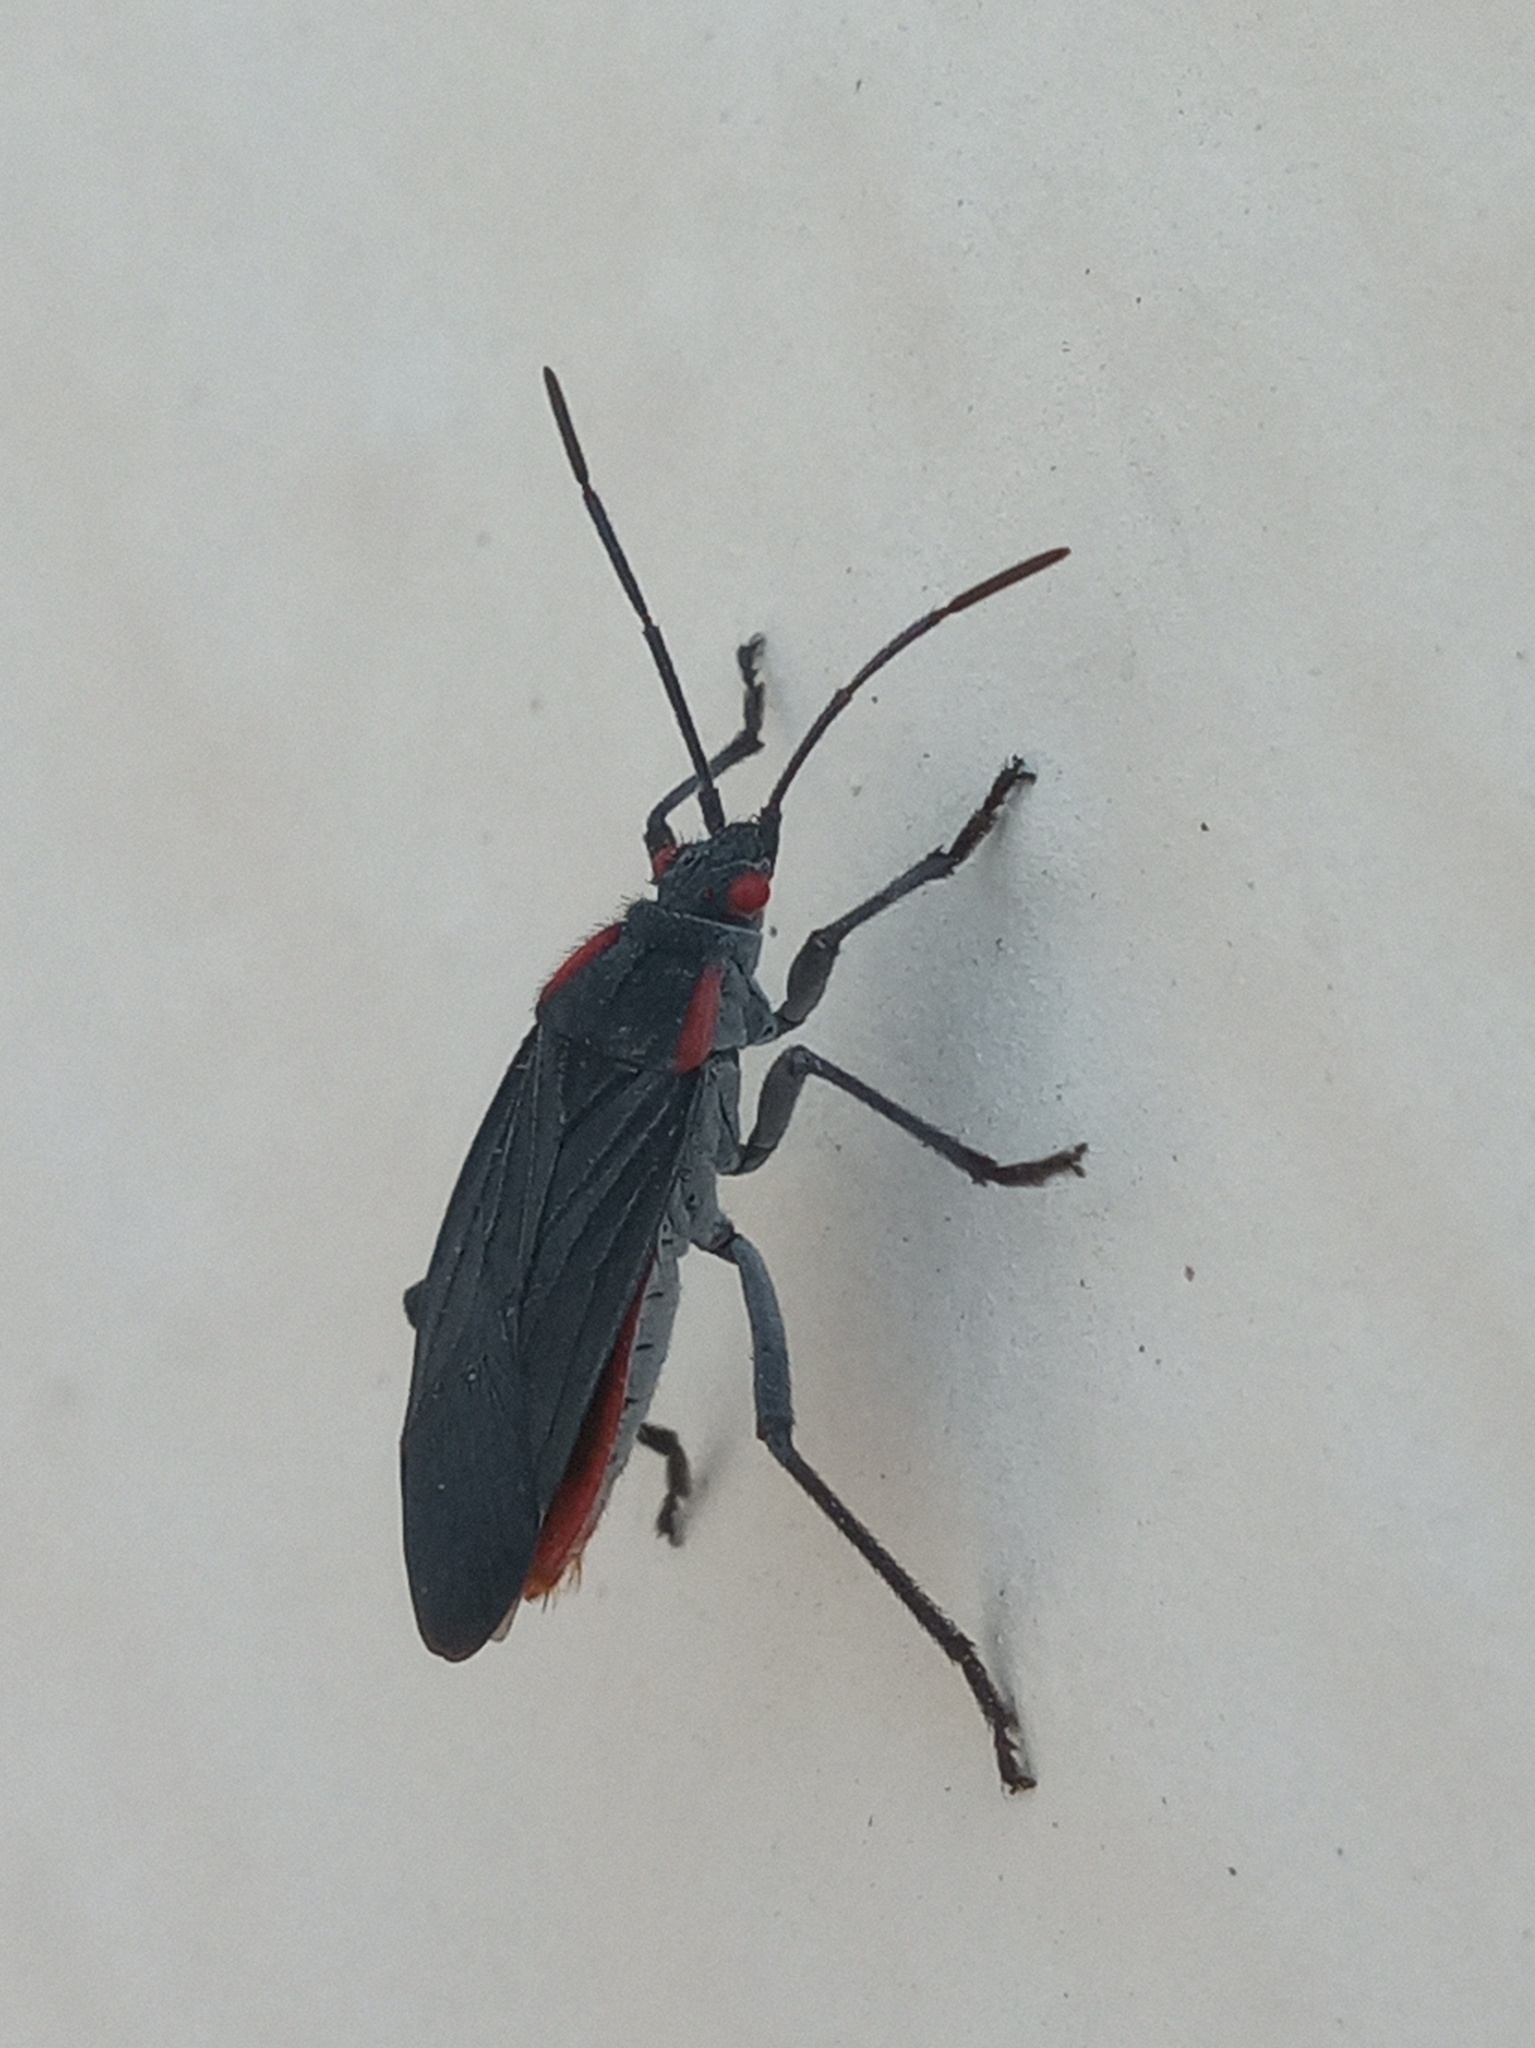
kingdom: Animalia
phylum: Arthropoda
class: Insecta
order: Hemiptera
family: Rhopalidae
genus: Jadera
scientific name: Jadera haematoloma
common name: Red-shouldered bug
